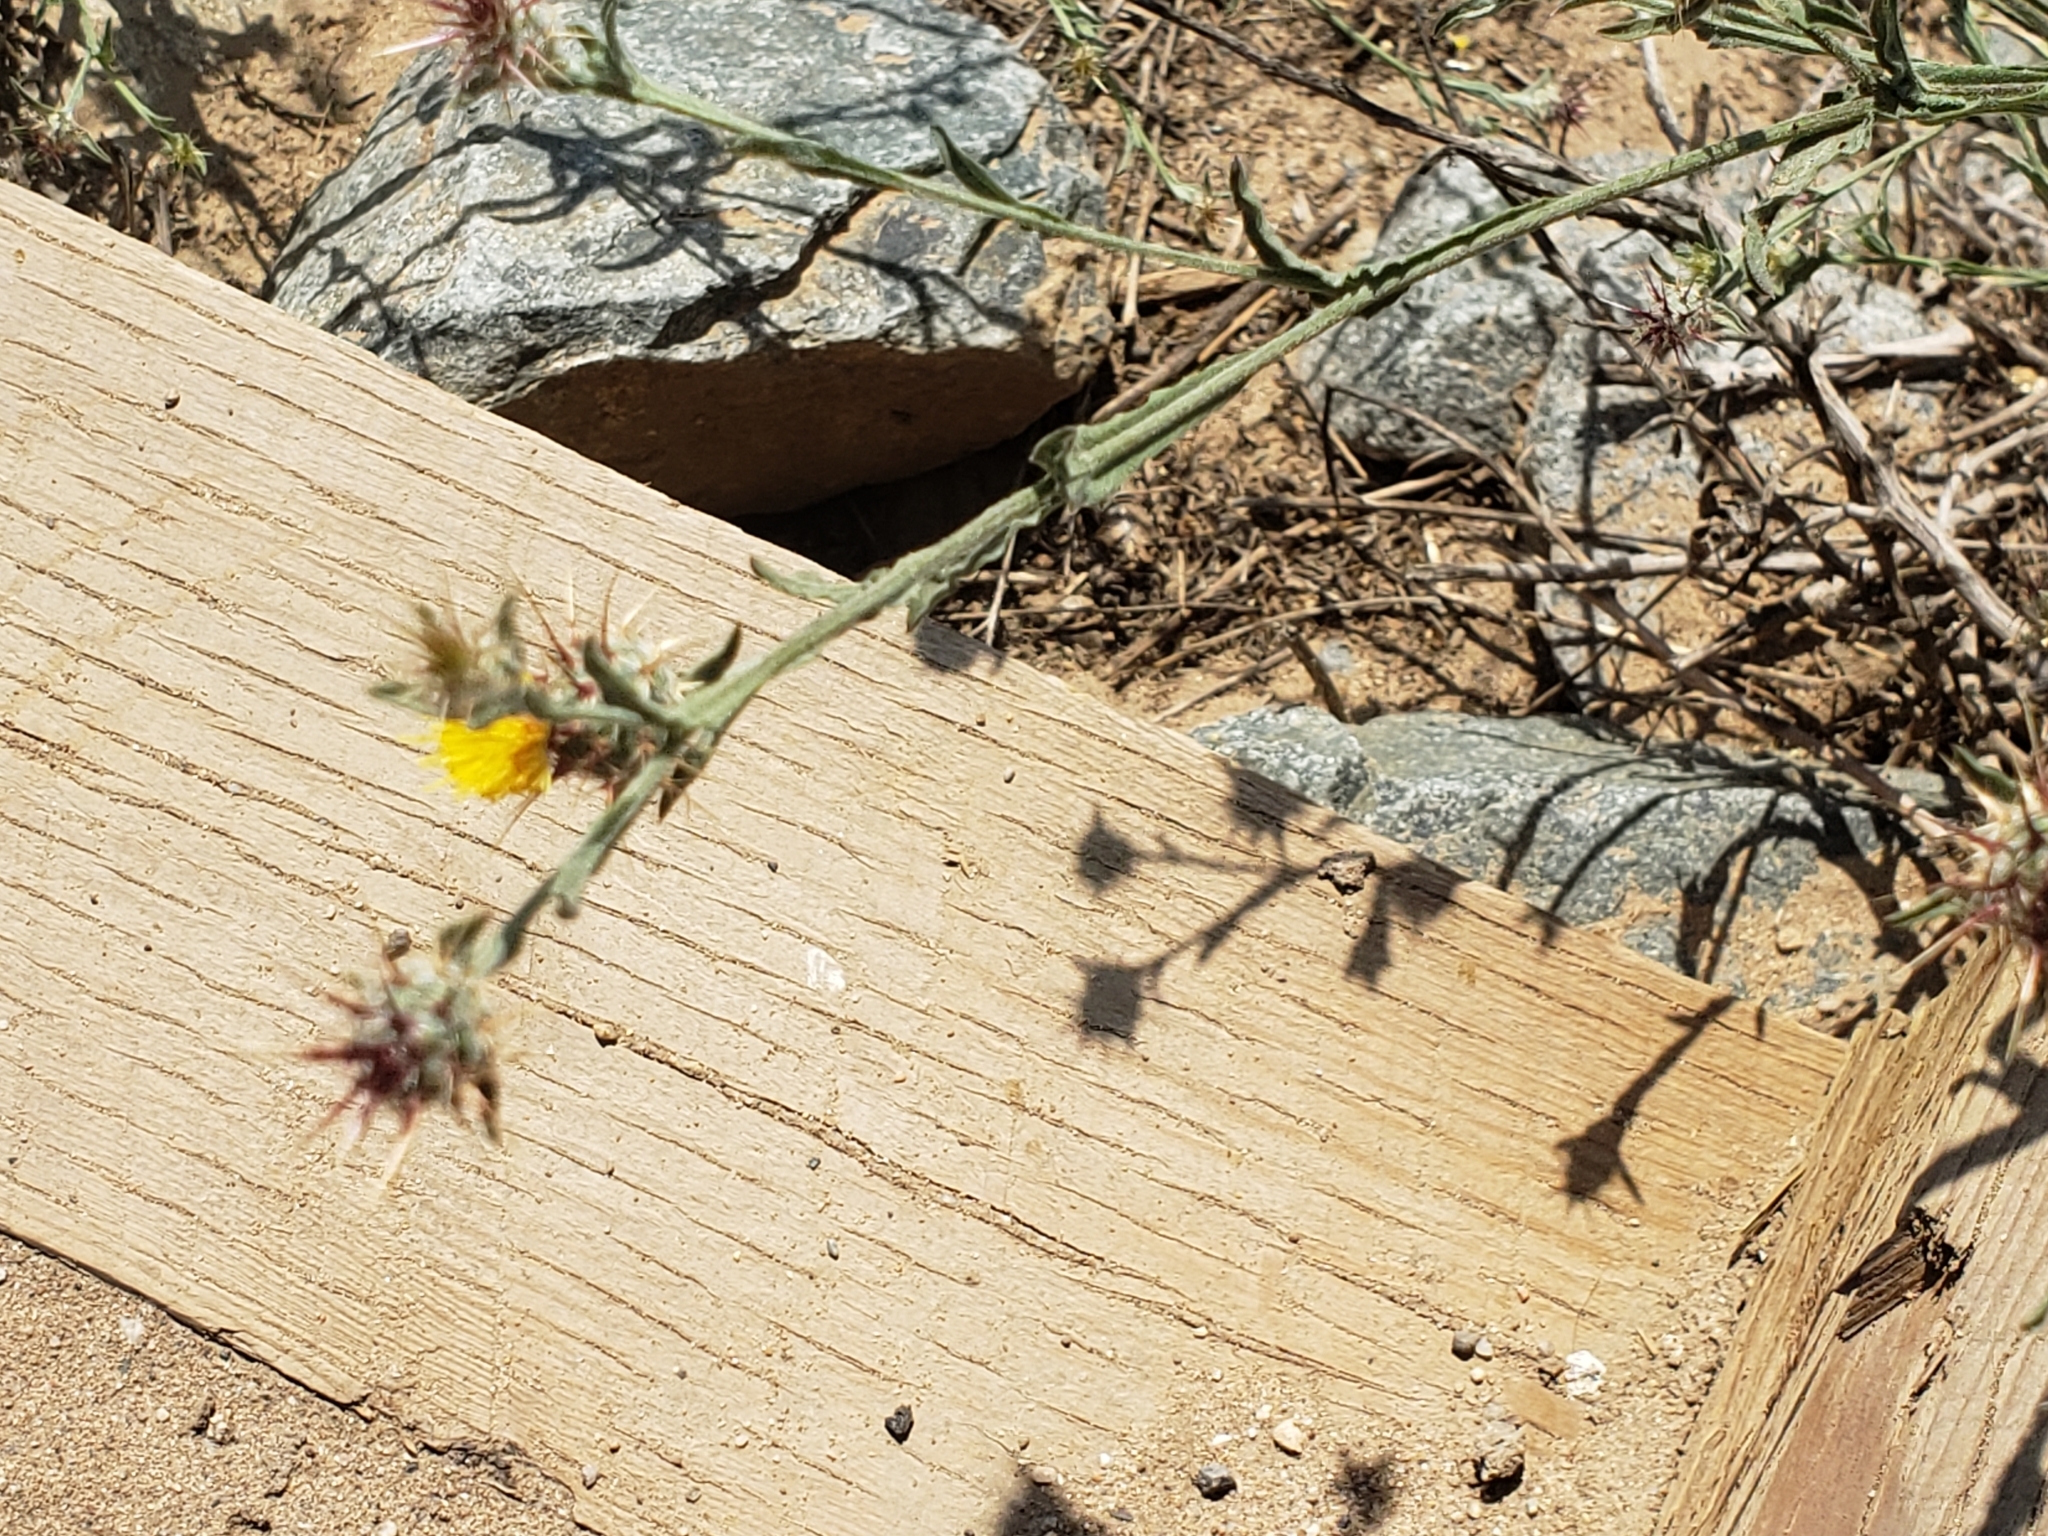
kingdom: Plantae
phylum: Tracheophyta
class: Magnoliopsida
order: Asterales
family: Asteraceae
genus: Centaurea
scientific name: Centaurea melitensis
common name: Maltese star-thistle
